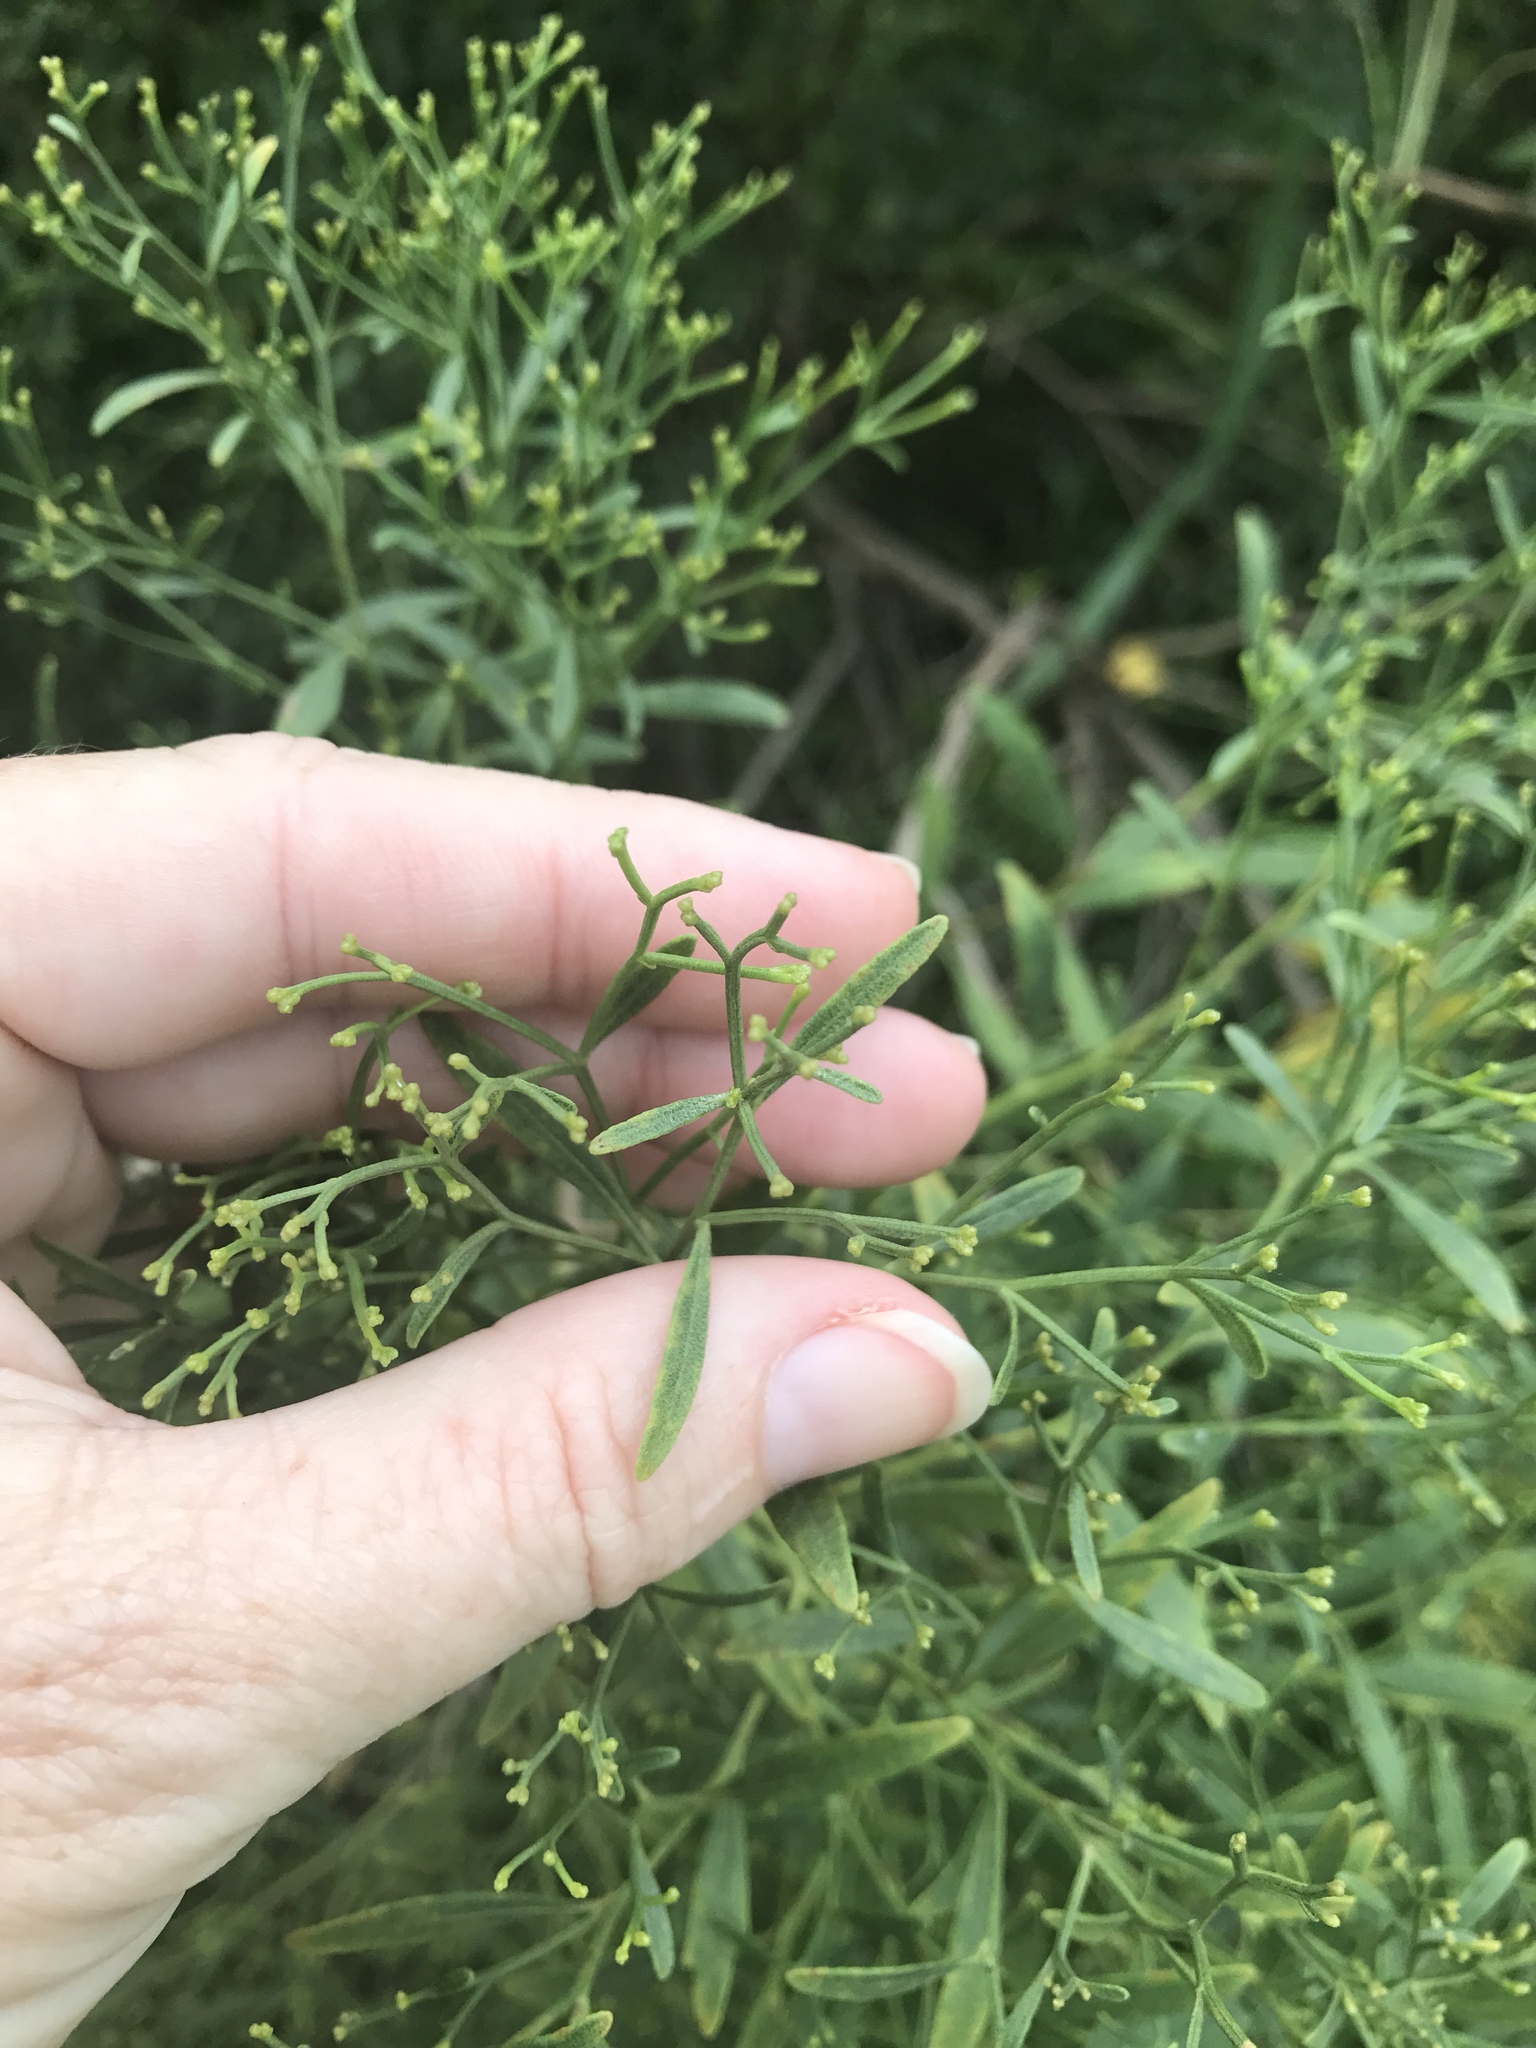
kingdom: Plantae
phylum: Tracheophyta
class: Magnoliopsida
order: Asterales
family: Asteraceae
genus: Baccharis
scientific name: Baccharis halimifolia
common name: Eastern baccharis
